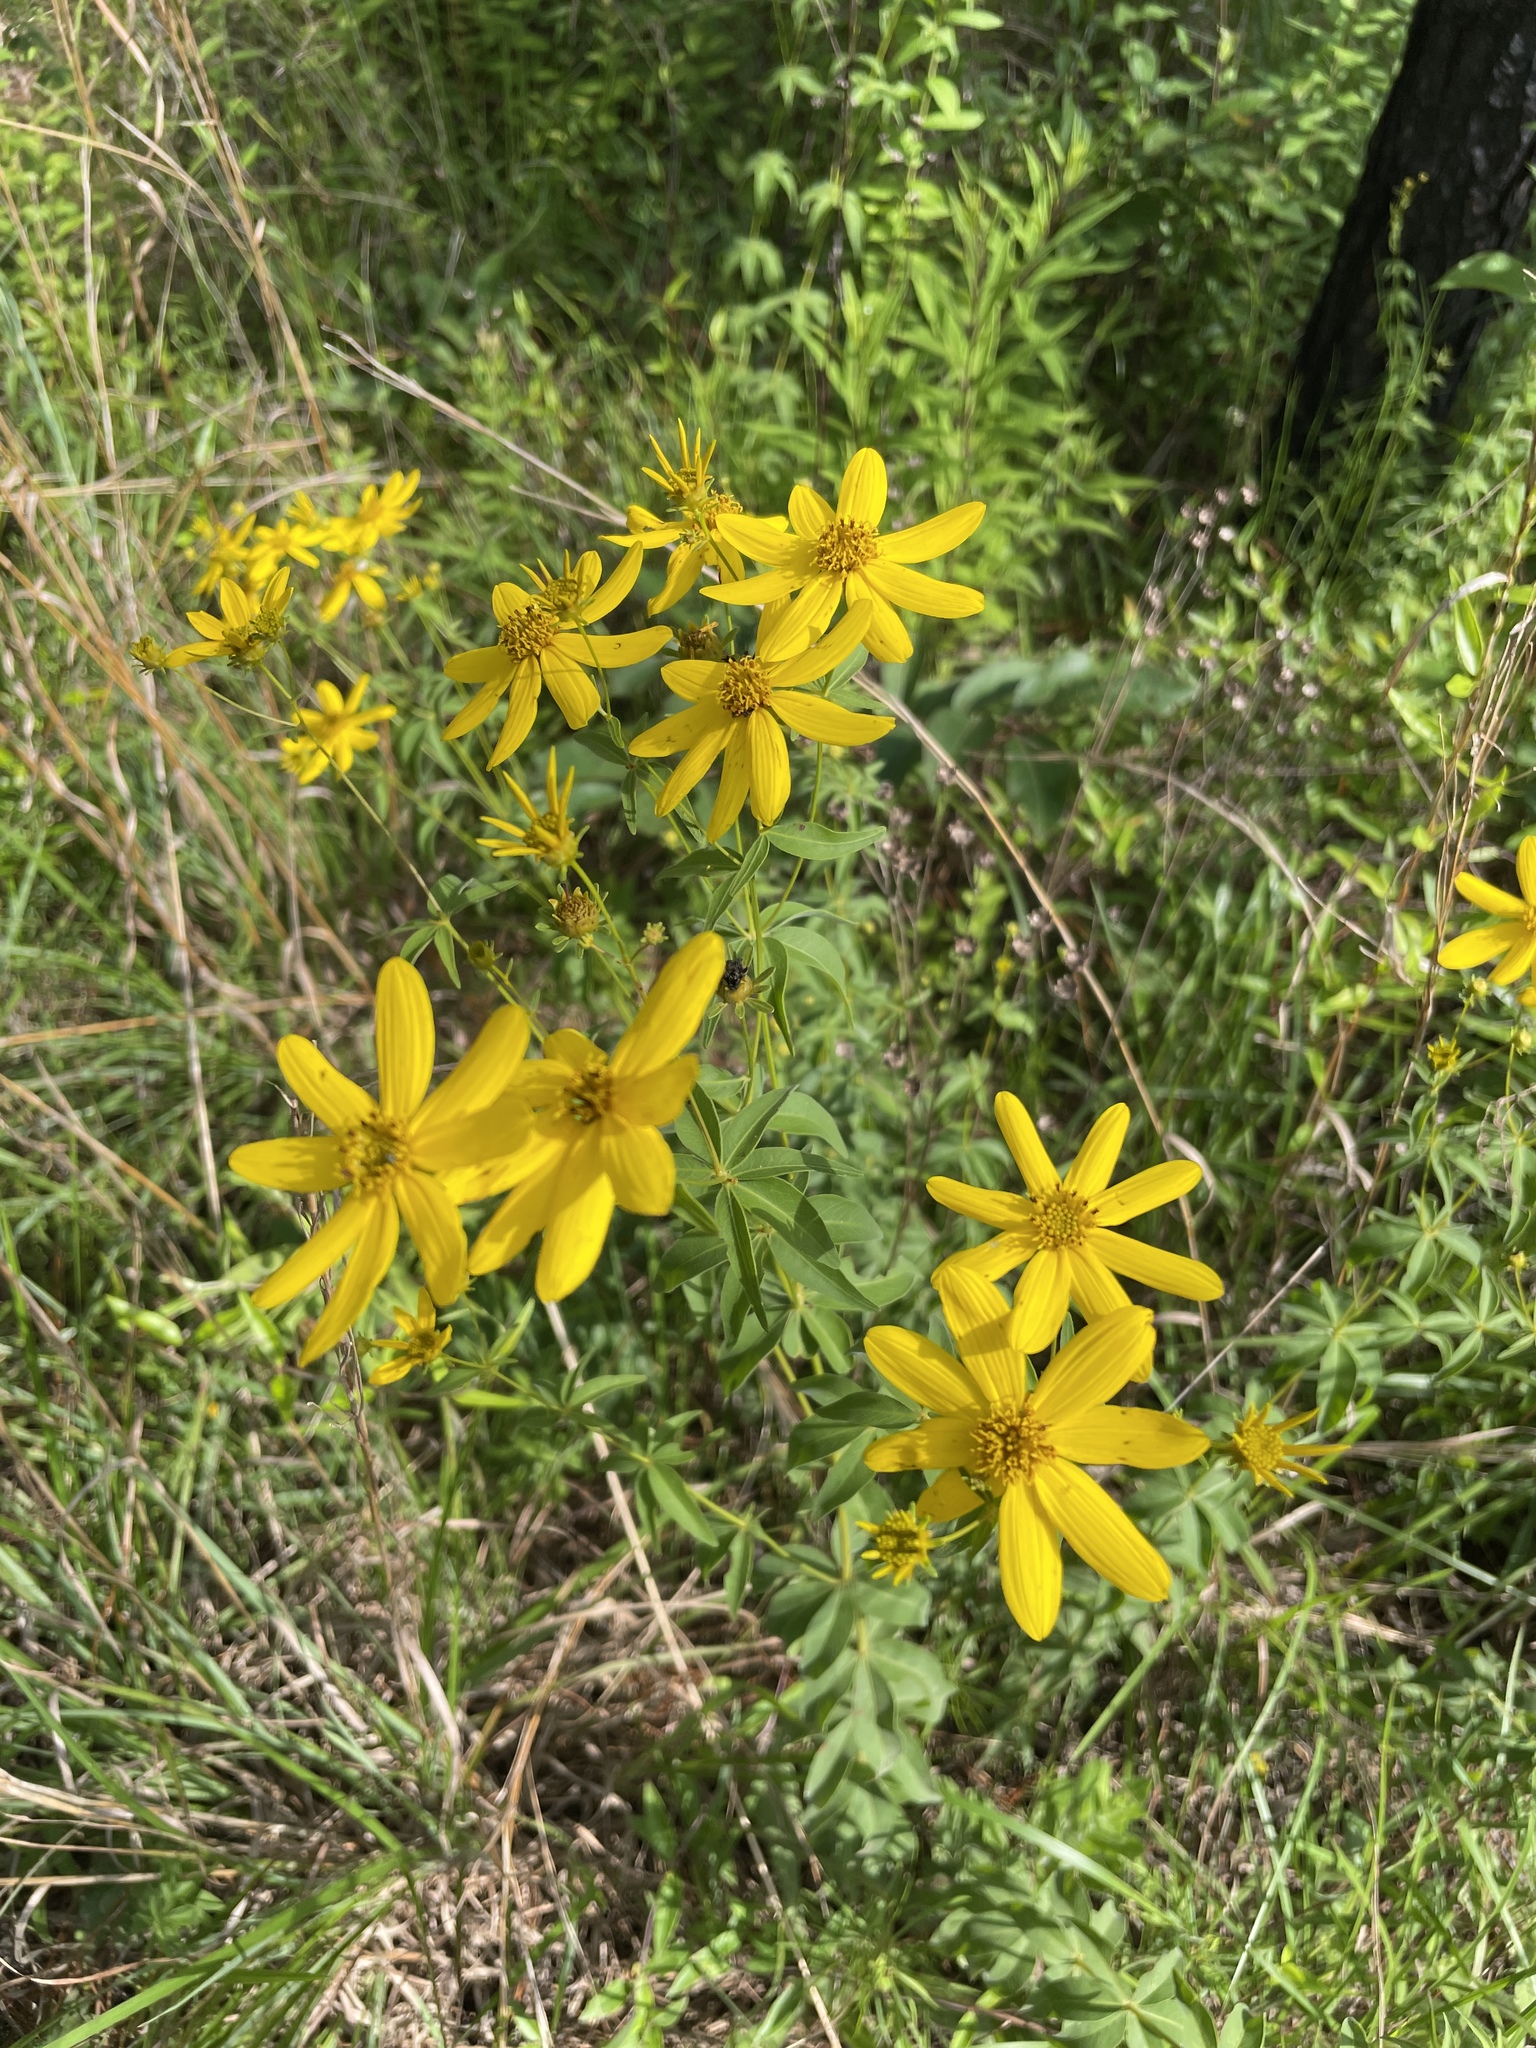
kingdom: Plantae
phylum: Tracheophyta
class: Magnoliopsida
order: Asterales
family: Asteraceae
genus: Coreopsis
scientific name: Coreopsis major
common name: Forest tickseed
